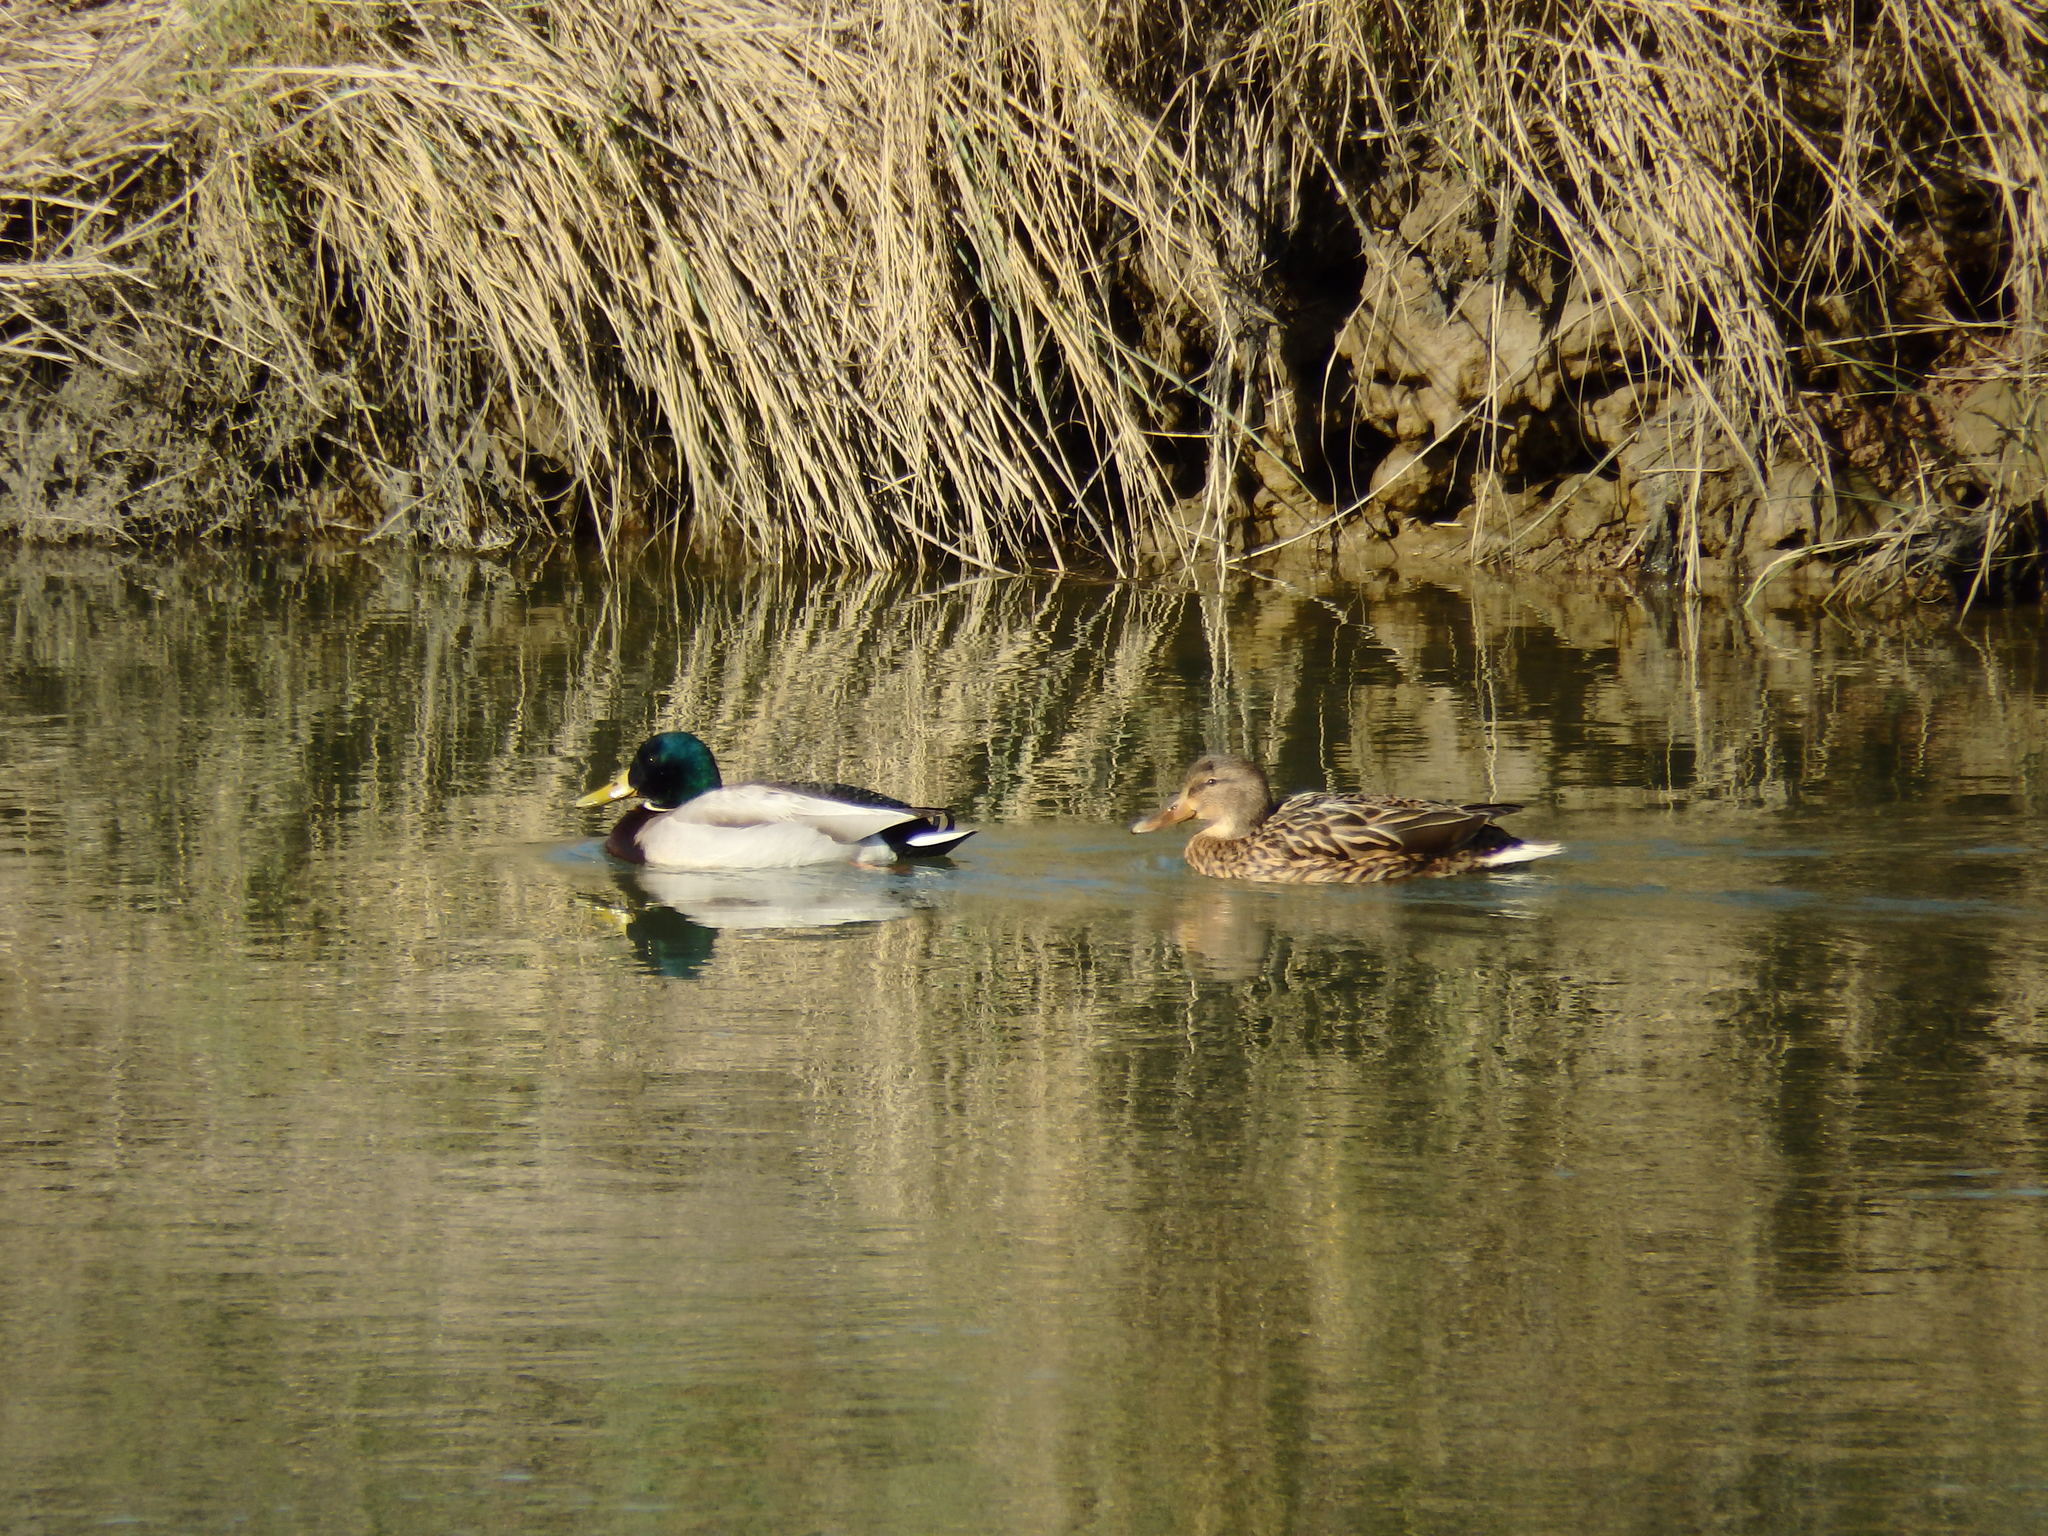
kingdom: Animalia
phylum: Chordata
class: Aves
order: Anseriformes
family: Anatidae
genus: Anas
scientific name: Anas platyrhynchos
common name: Mallard
